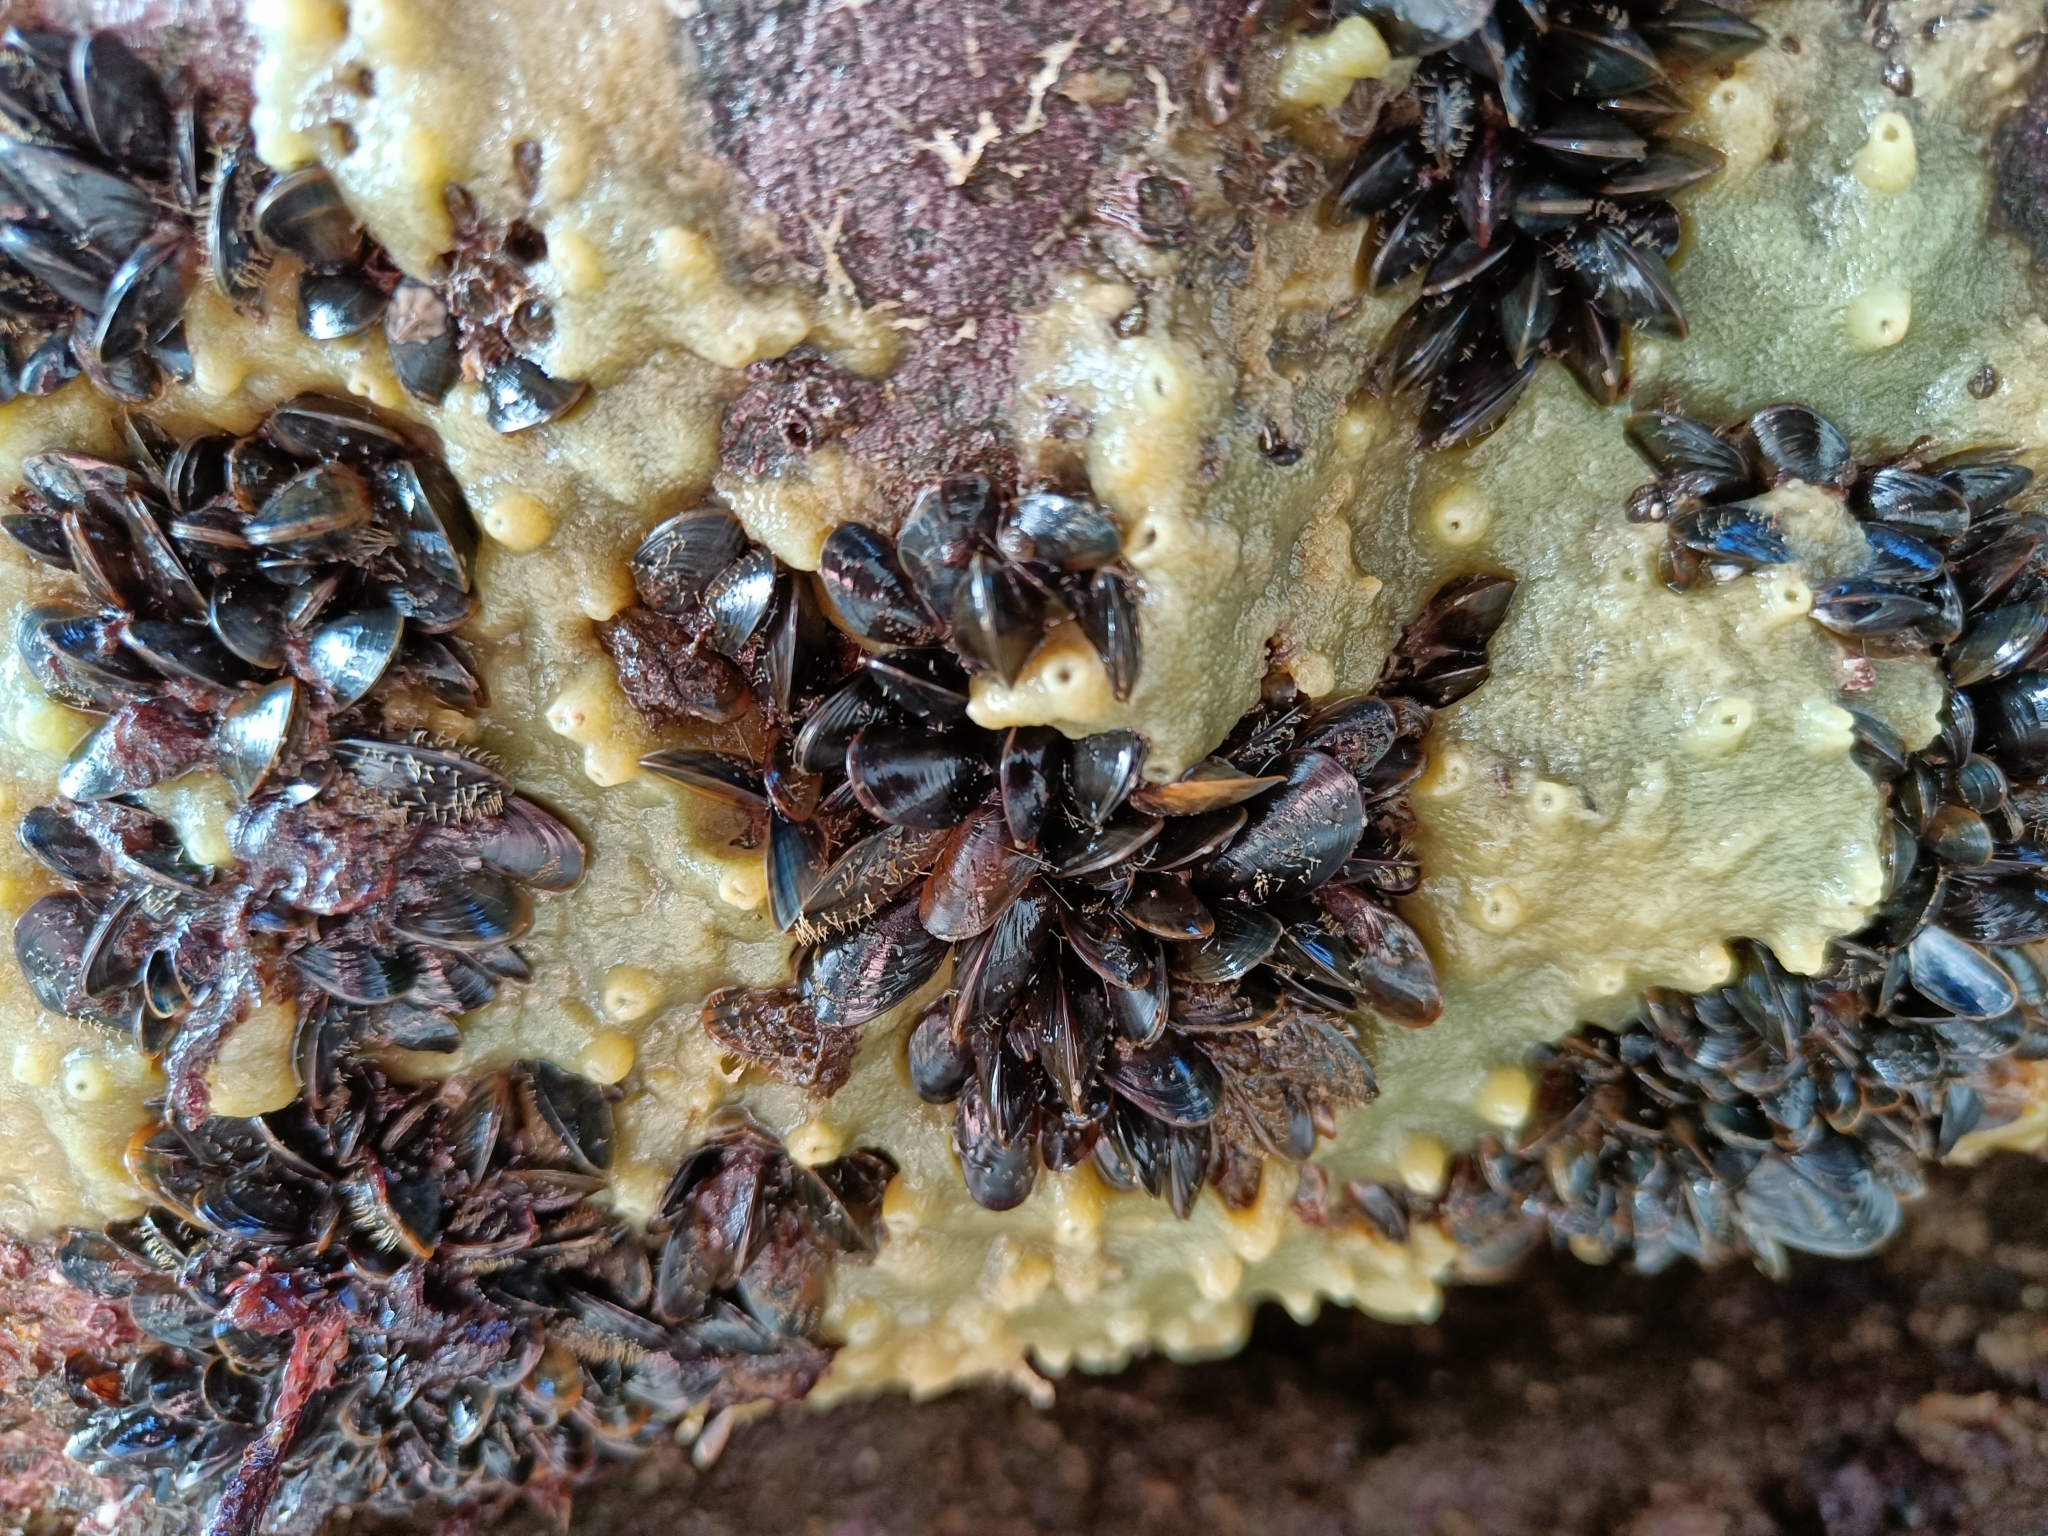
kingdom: Animalia
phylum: Porifera
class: Demospongiae
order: Suberitida
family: Halichondriidae
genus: Halichondria
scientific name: Halichondria panicea
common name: Breadcrumb sponge
